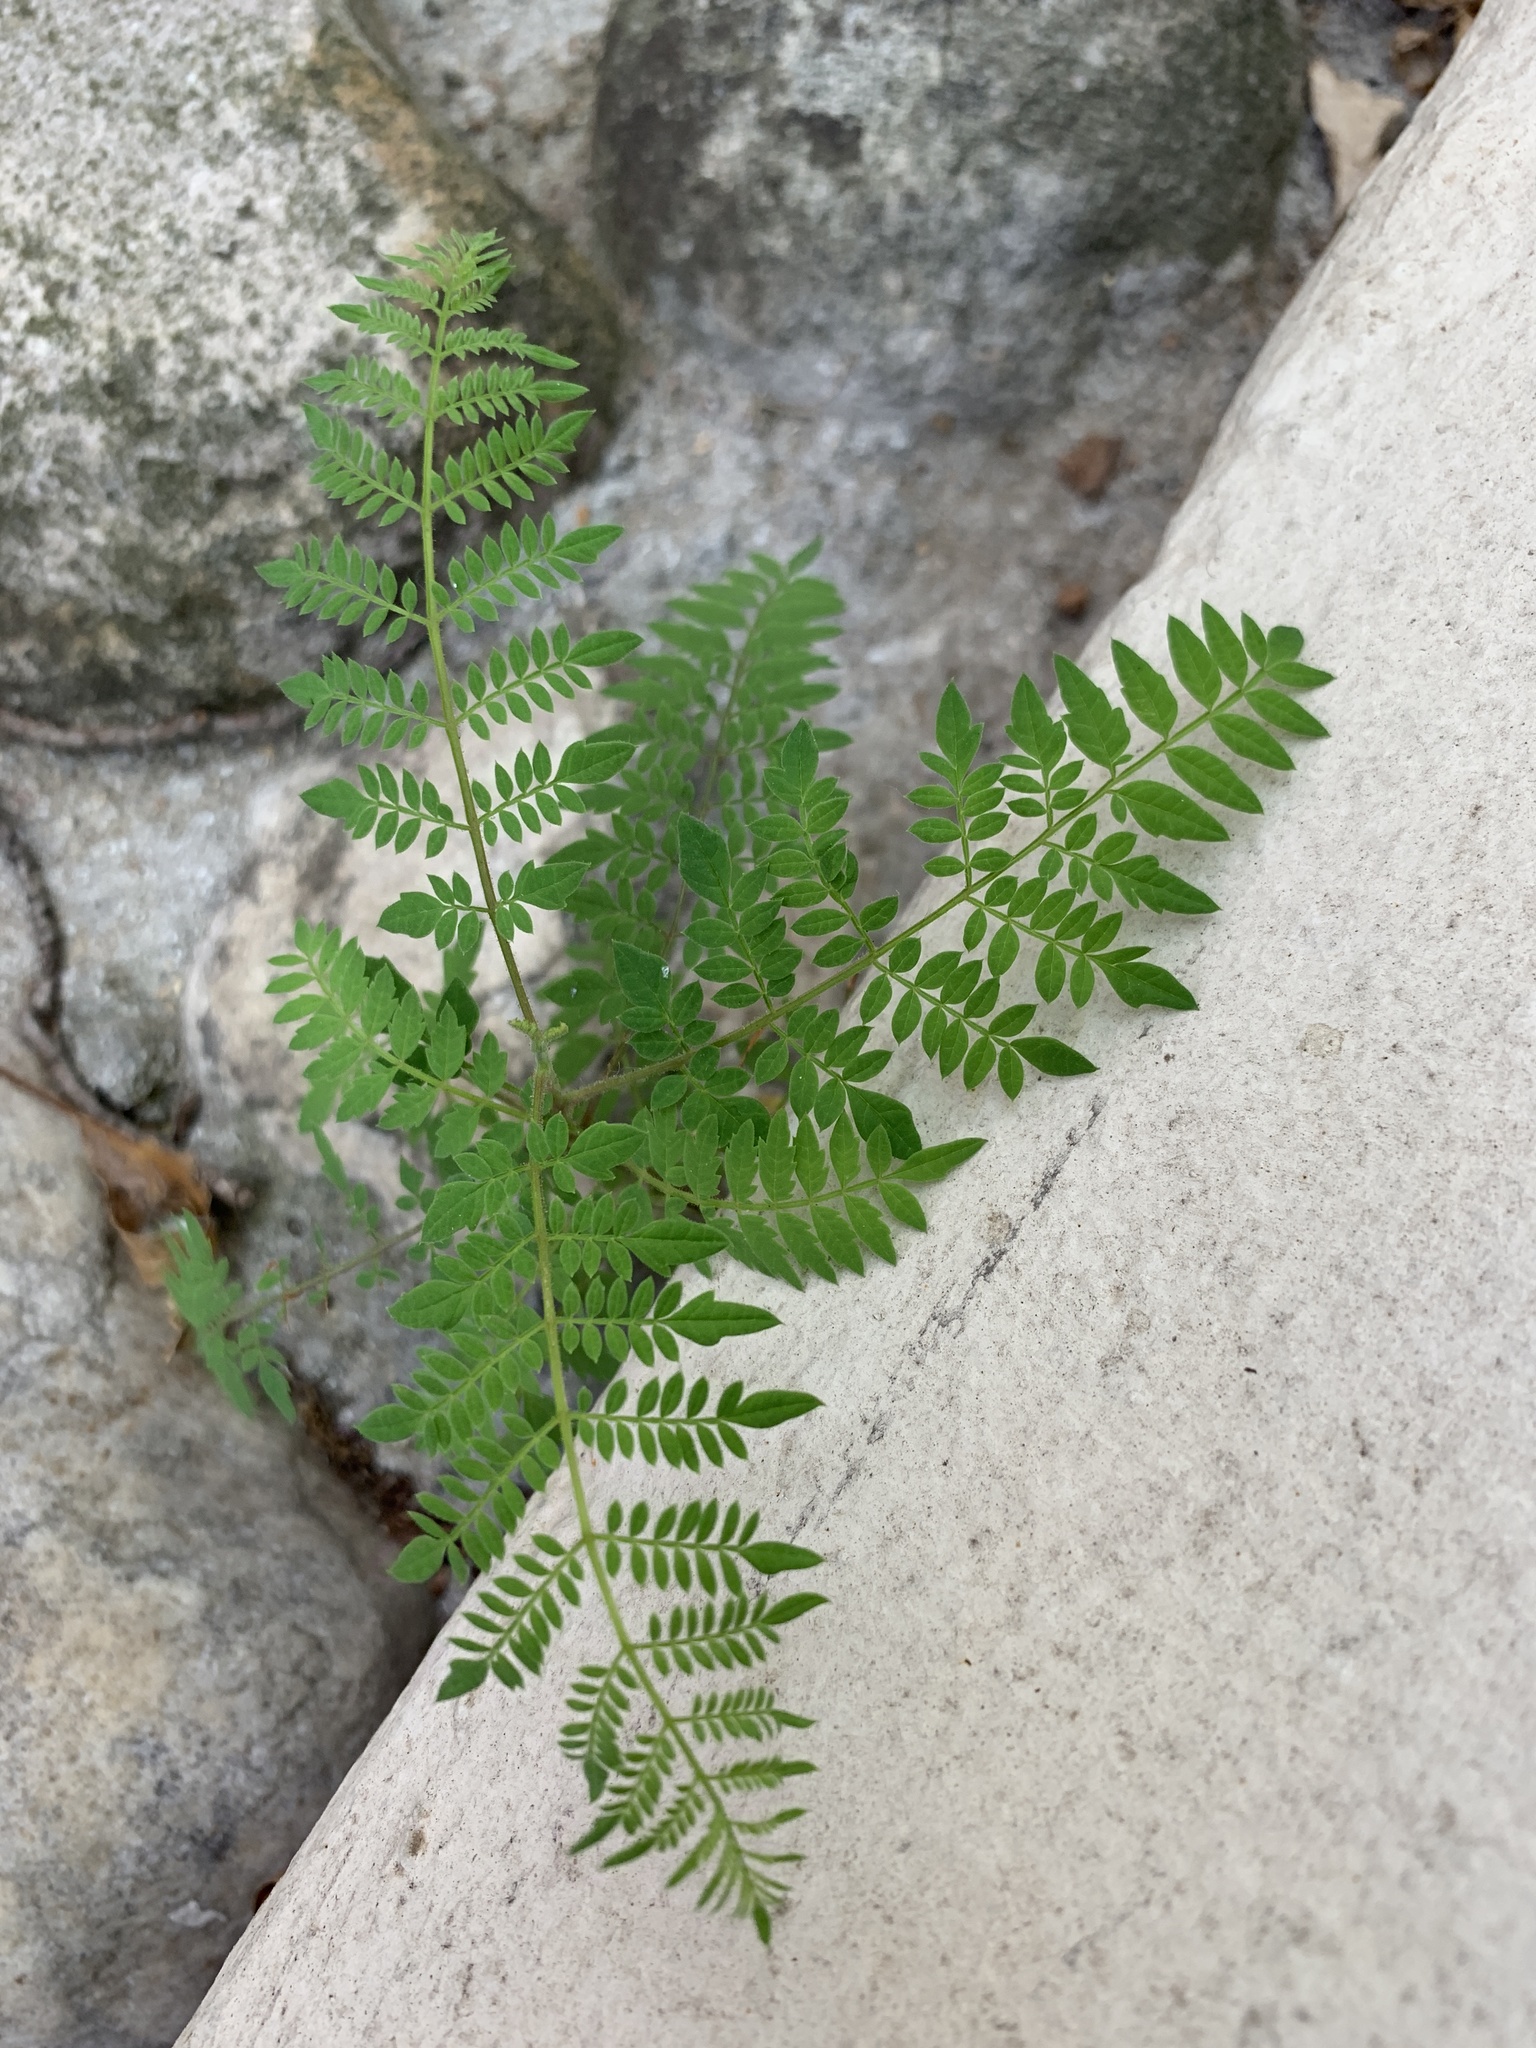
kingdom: Plantae
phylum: Tracheophyta
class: Magnoliopsida
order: Lamiales
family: Bignoniaceae
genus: Jacaranda
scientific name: Jacaranda mimosifolia
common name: Black poui
